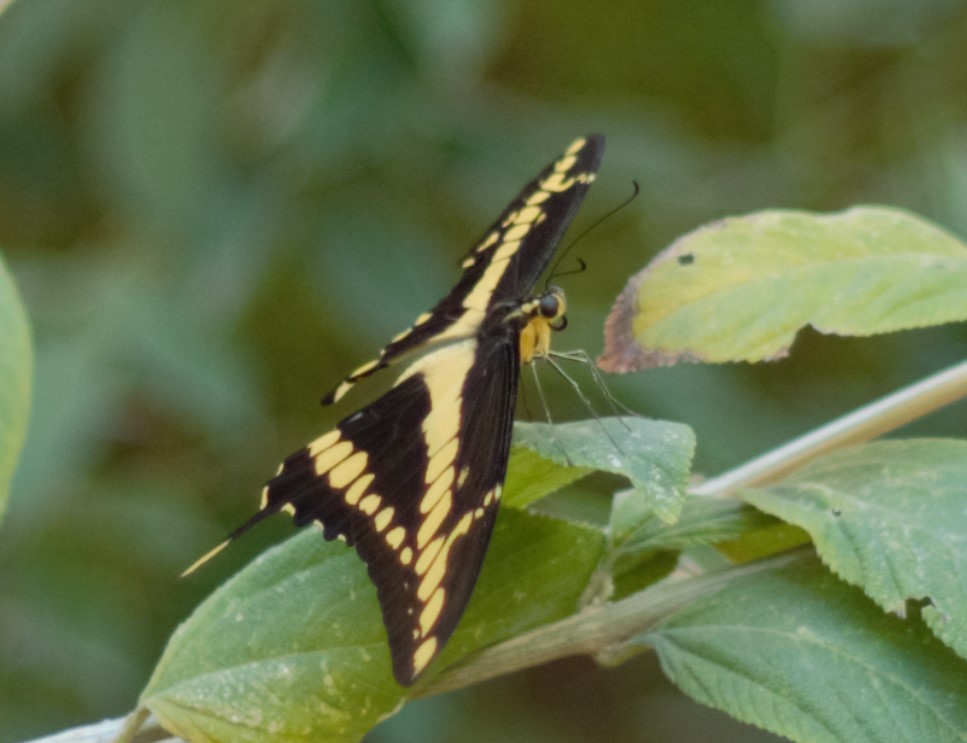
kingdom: Animalia
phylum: Arthropoda
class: Insecta
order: Lepidoptera
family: Papilionidae
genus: Papilio
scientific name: Papilio thoas
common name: King swallowtail
